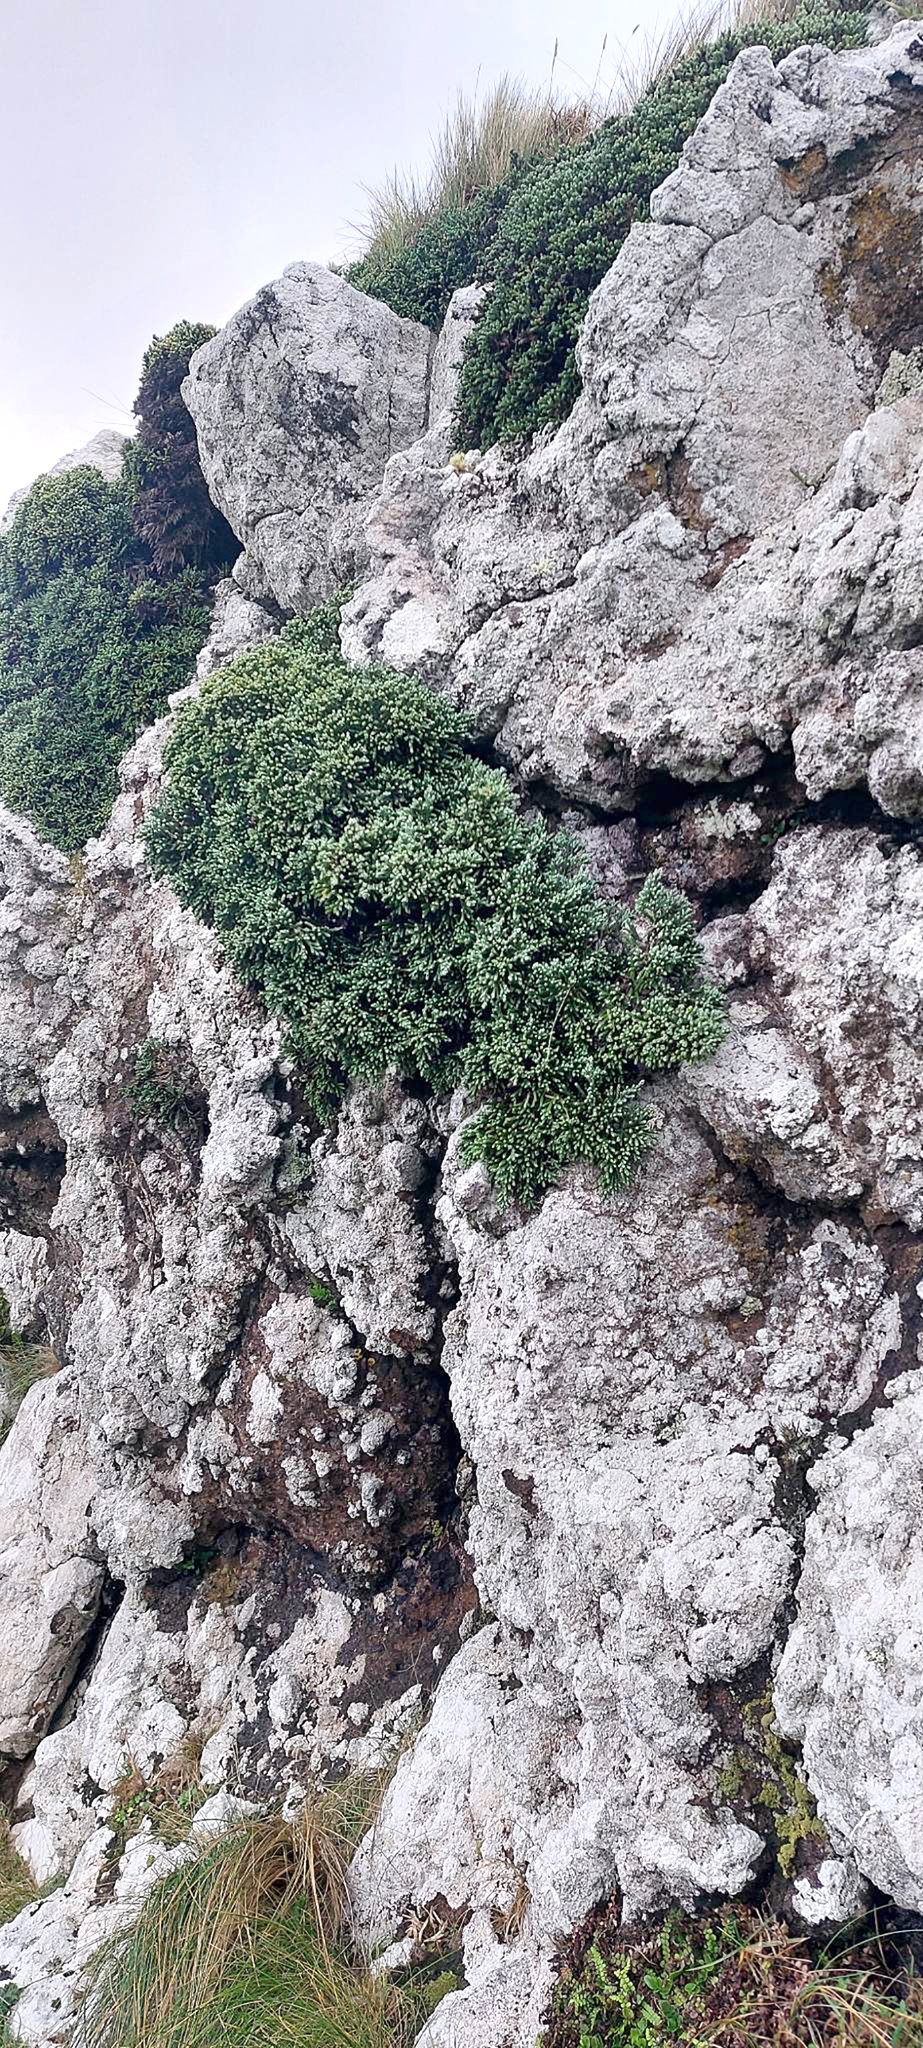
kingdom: Plantae
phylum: Tracheophyta
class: Magnoliopsida
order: Asterales
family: Asteraceae
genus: Ozothamnus
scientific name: Ozothamnus selago
